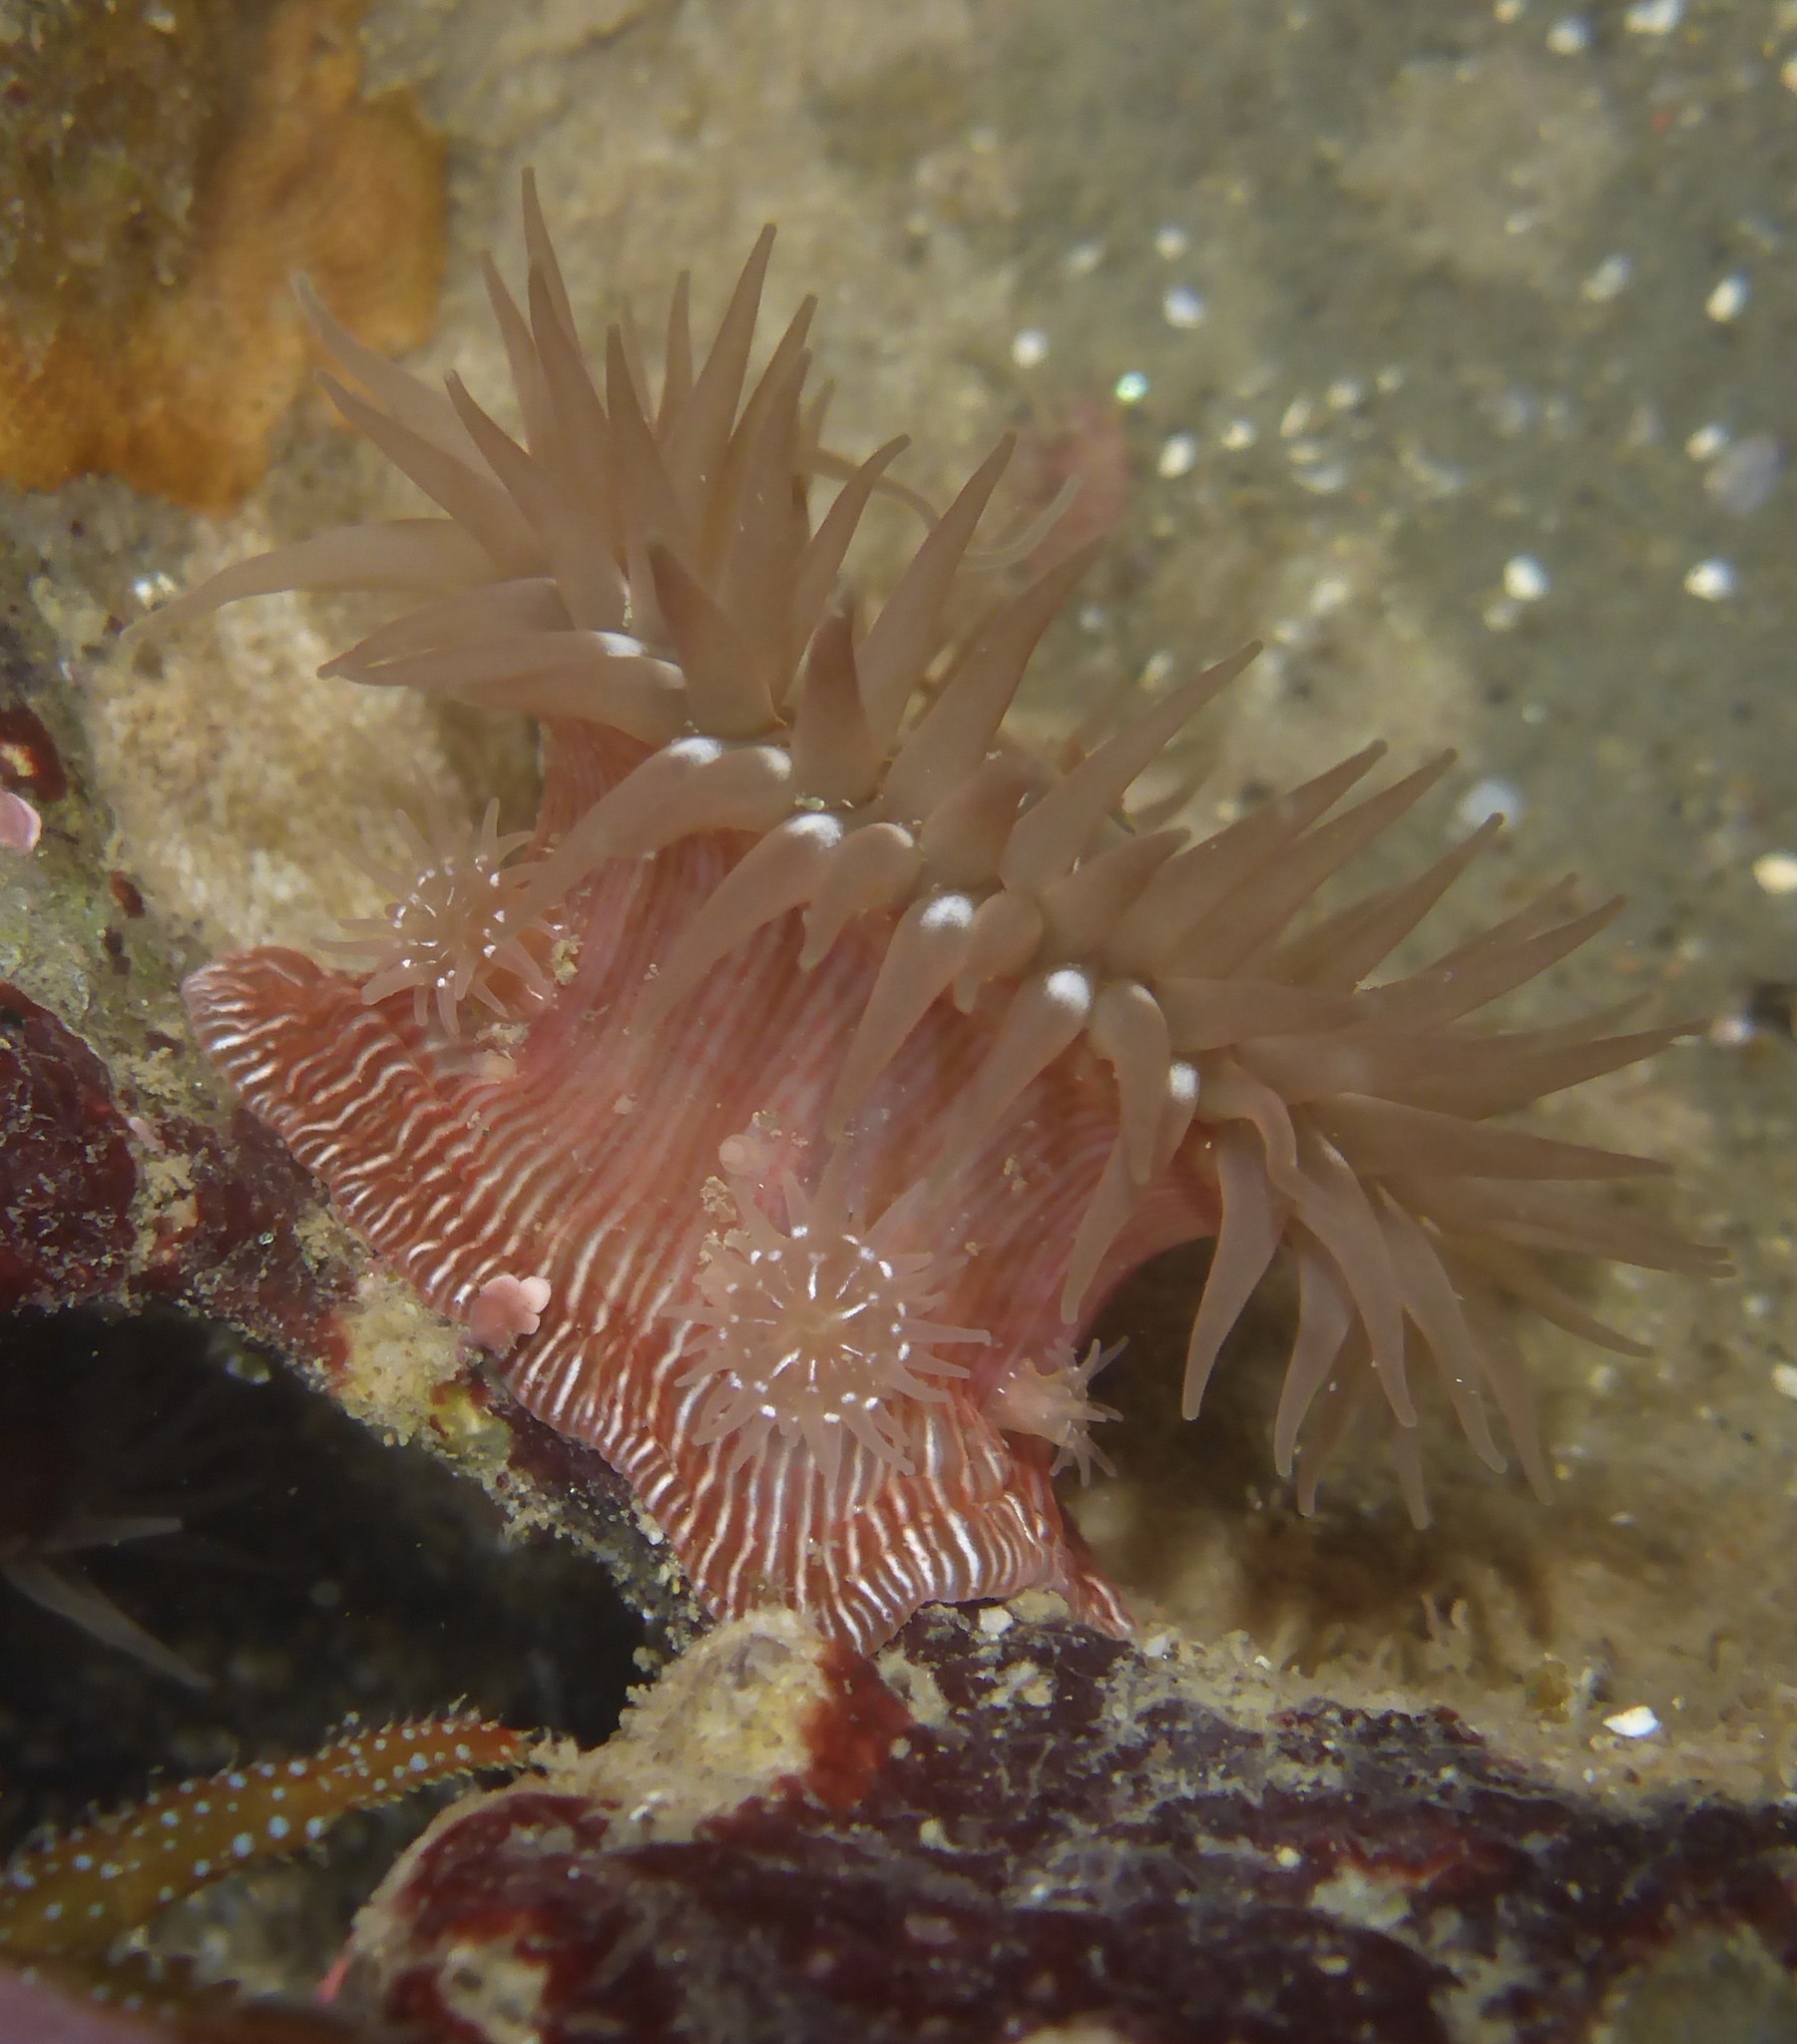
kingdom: Animalia
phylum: Cnidaria
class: Anthozoa
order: Actiniaria
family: Actiniidae
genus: Epiactis
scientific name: Epiactis prolifera
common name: Brooding anemone
